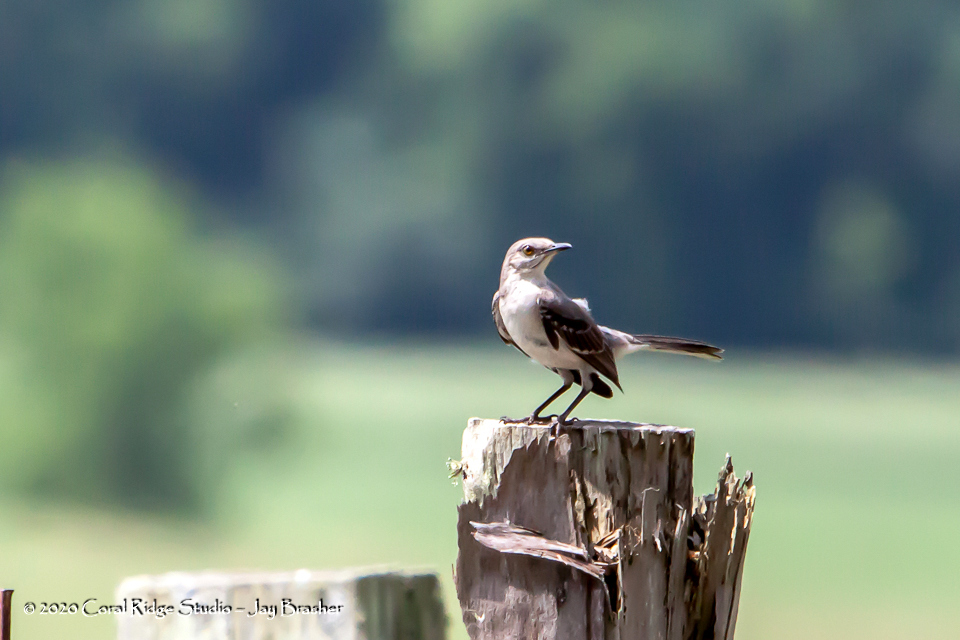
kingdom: Animalia
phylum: Chordata
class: Aves
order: Passeriformes
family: Mimidae
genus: Mimus
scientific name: Mimus polyglottos
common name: Northern mockingbird
